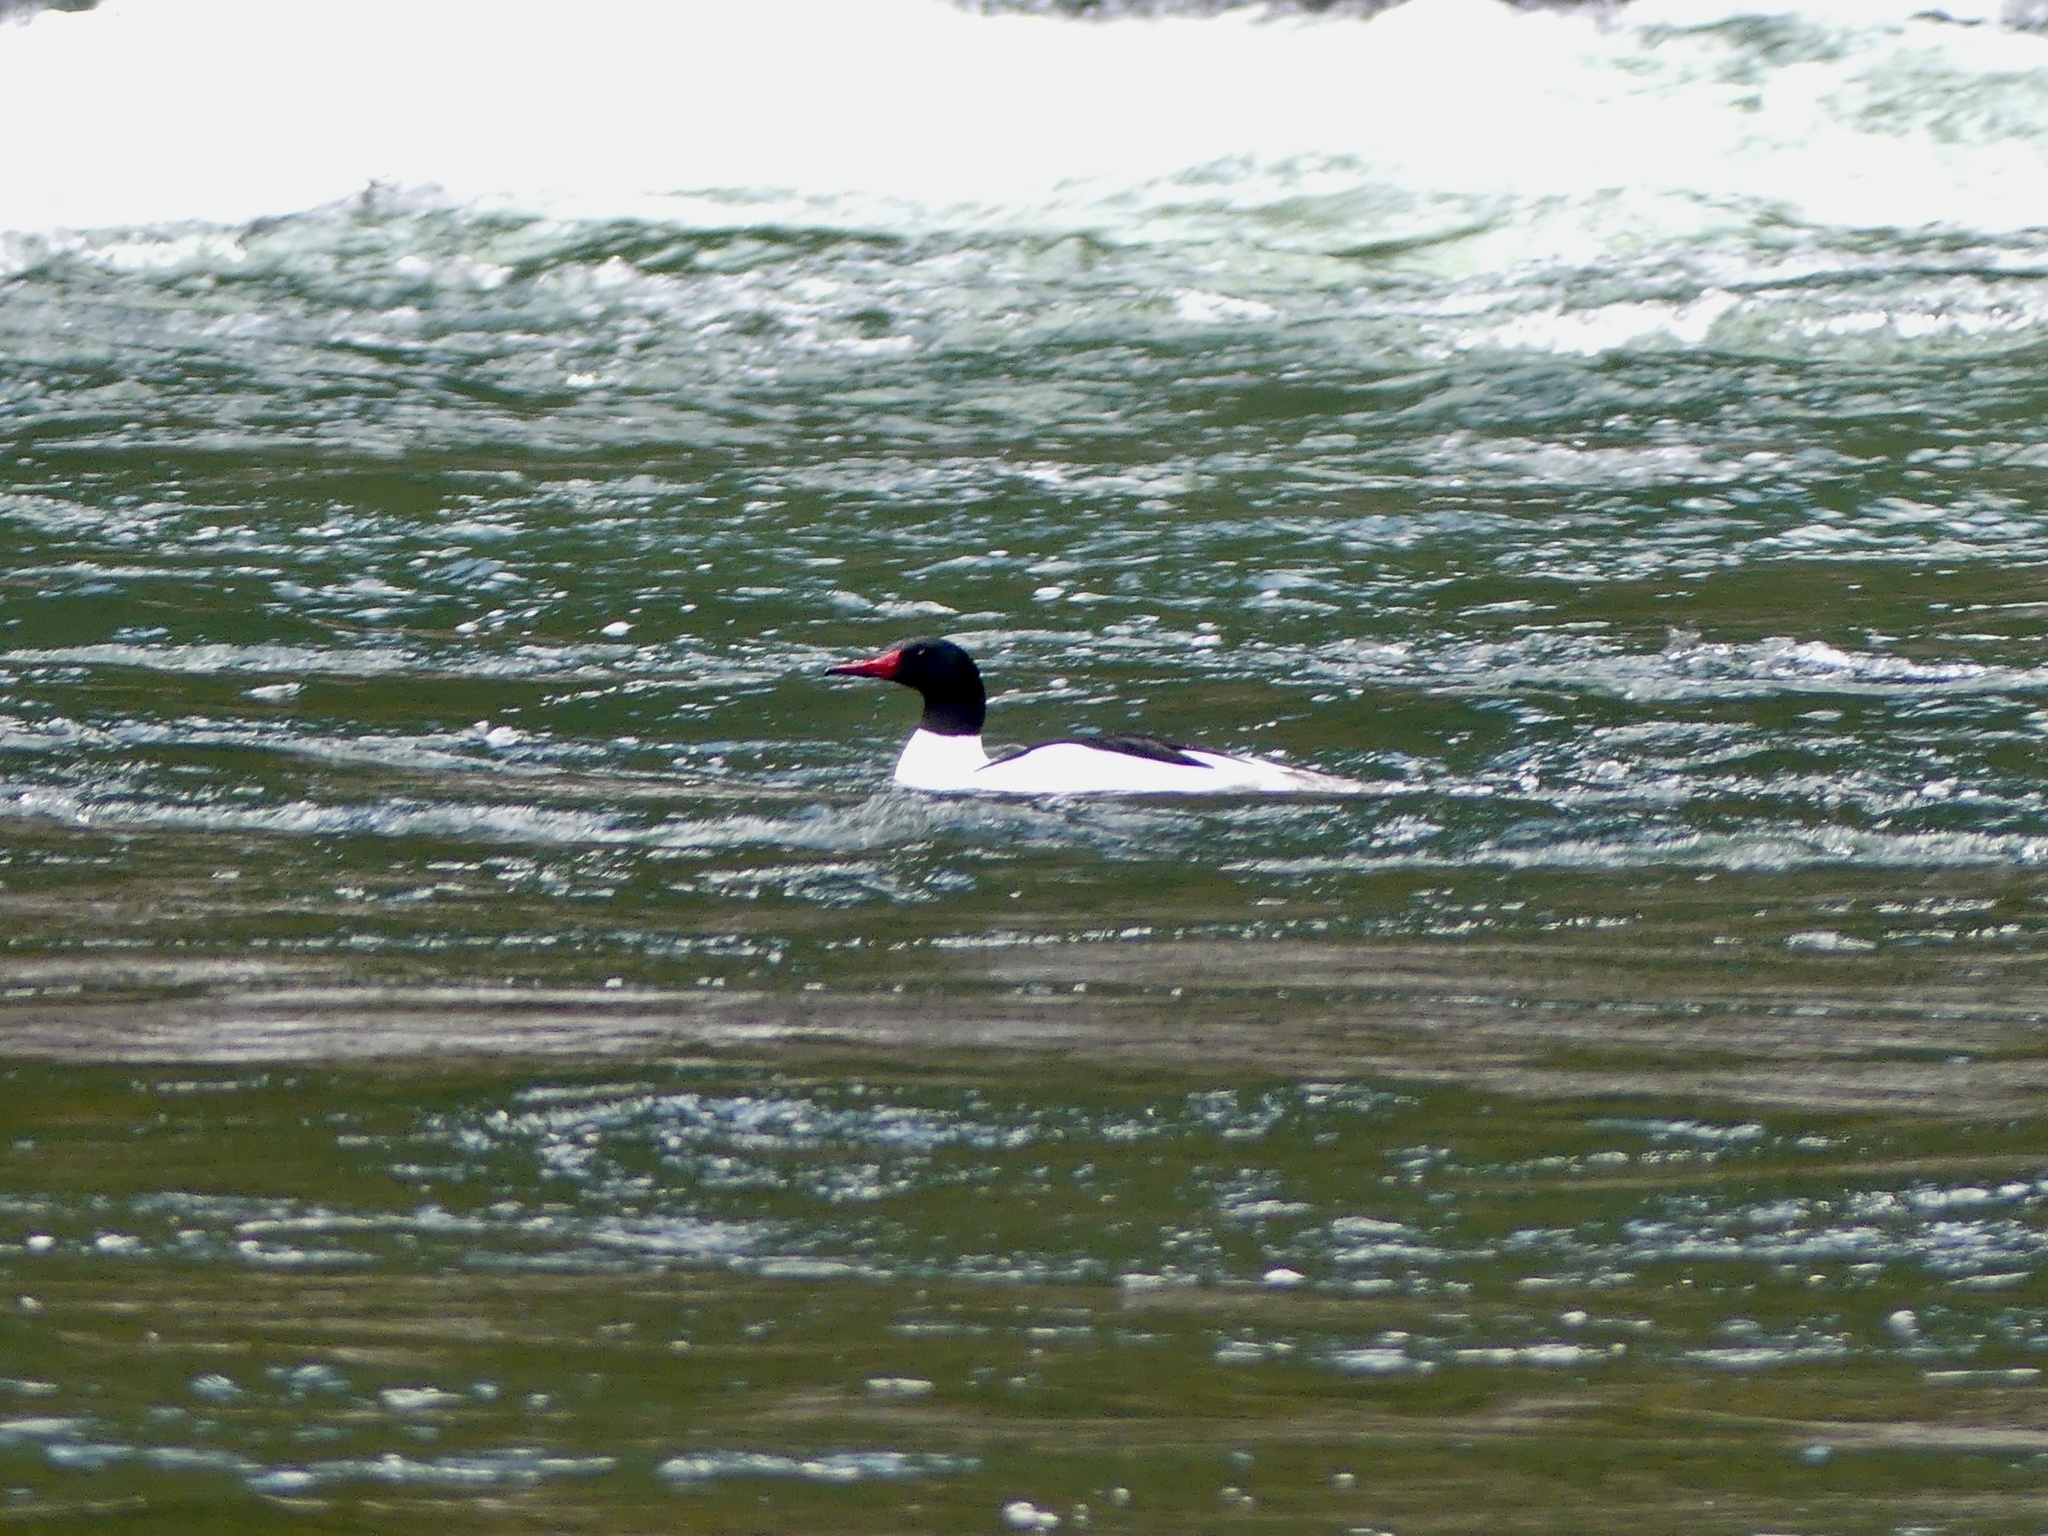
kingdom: Animalia
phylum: Chordata
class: Aves
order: Anseriformes
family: Anatidae
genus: Mergus
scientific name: Mergus merganser
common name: Common merganser
